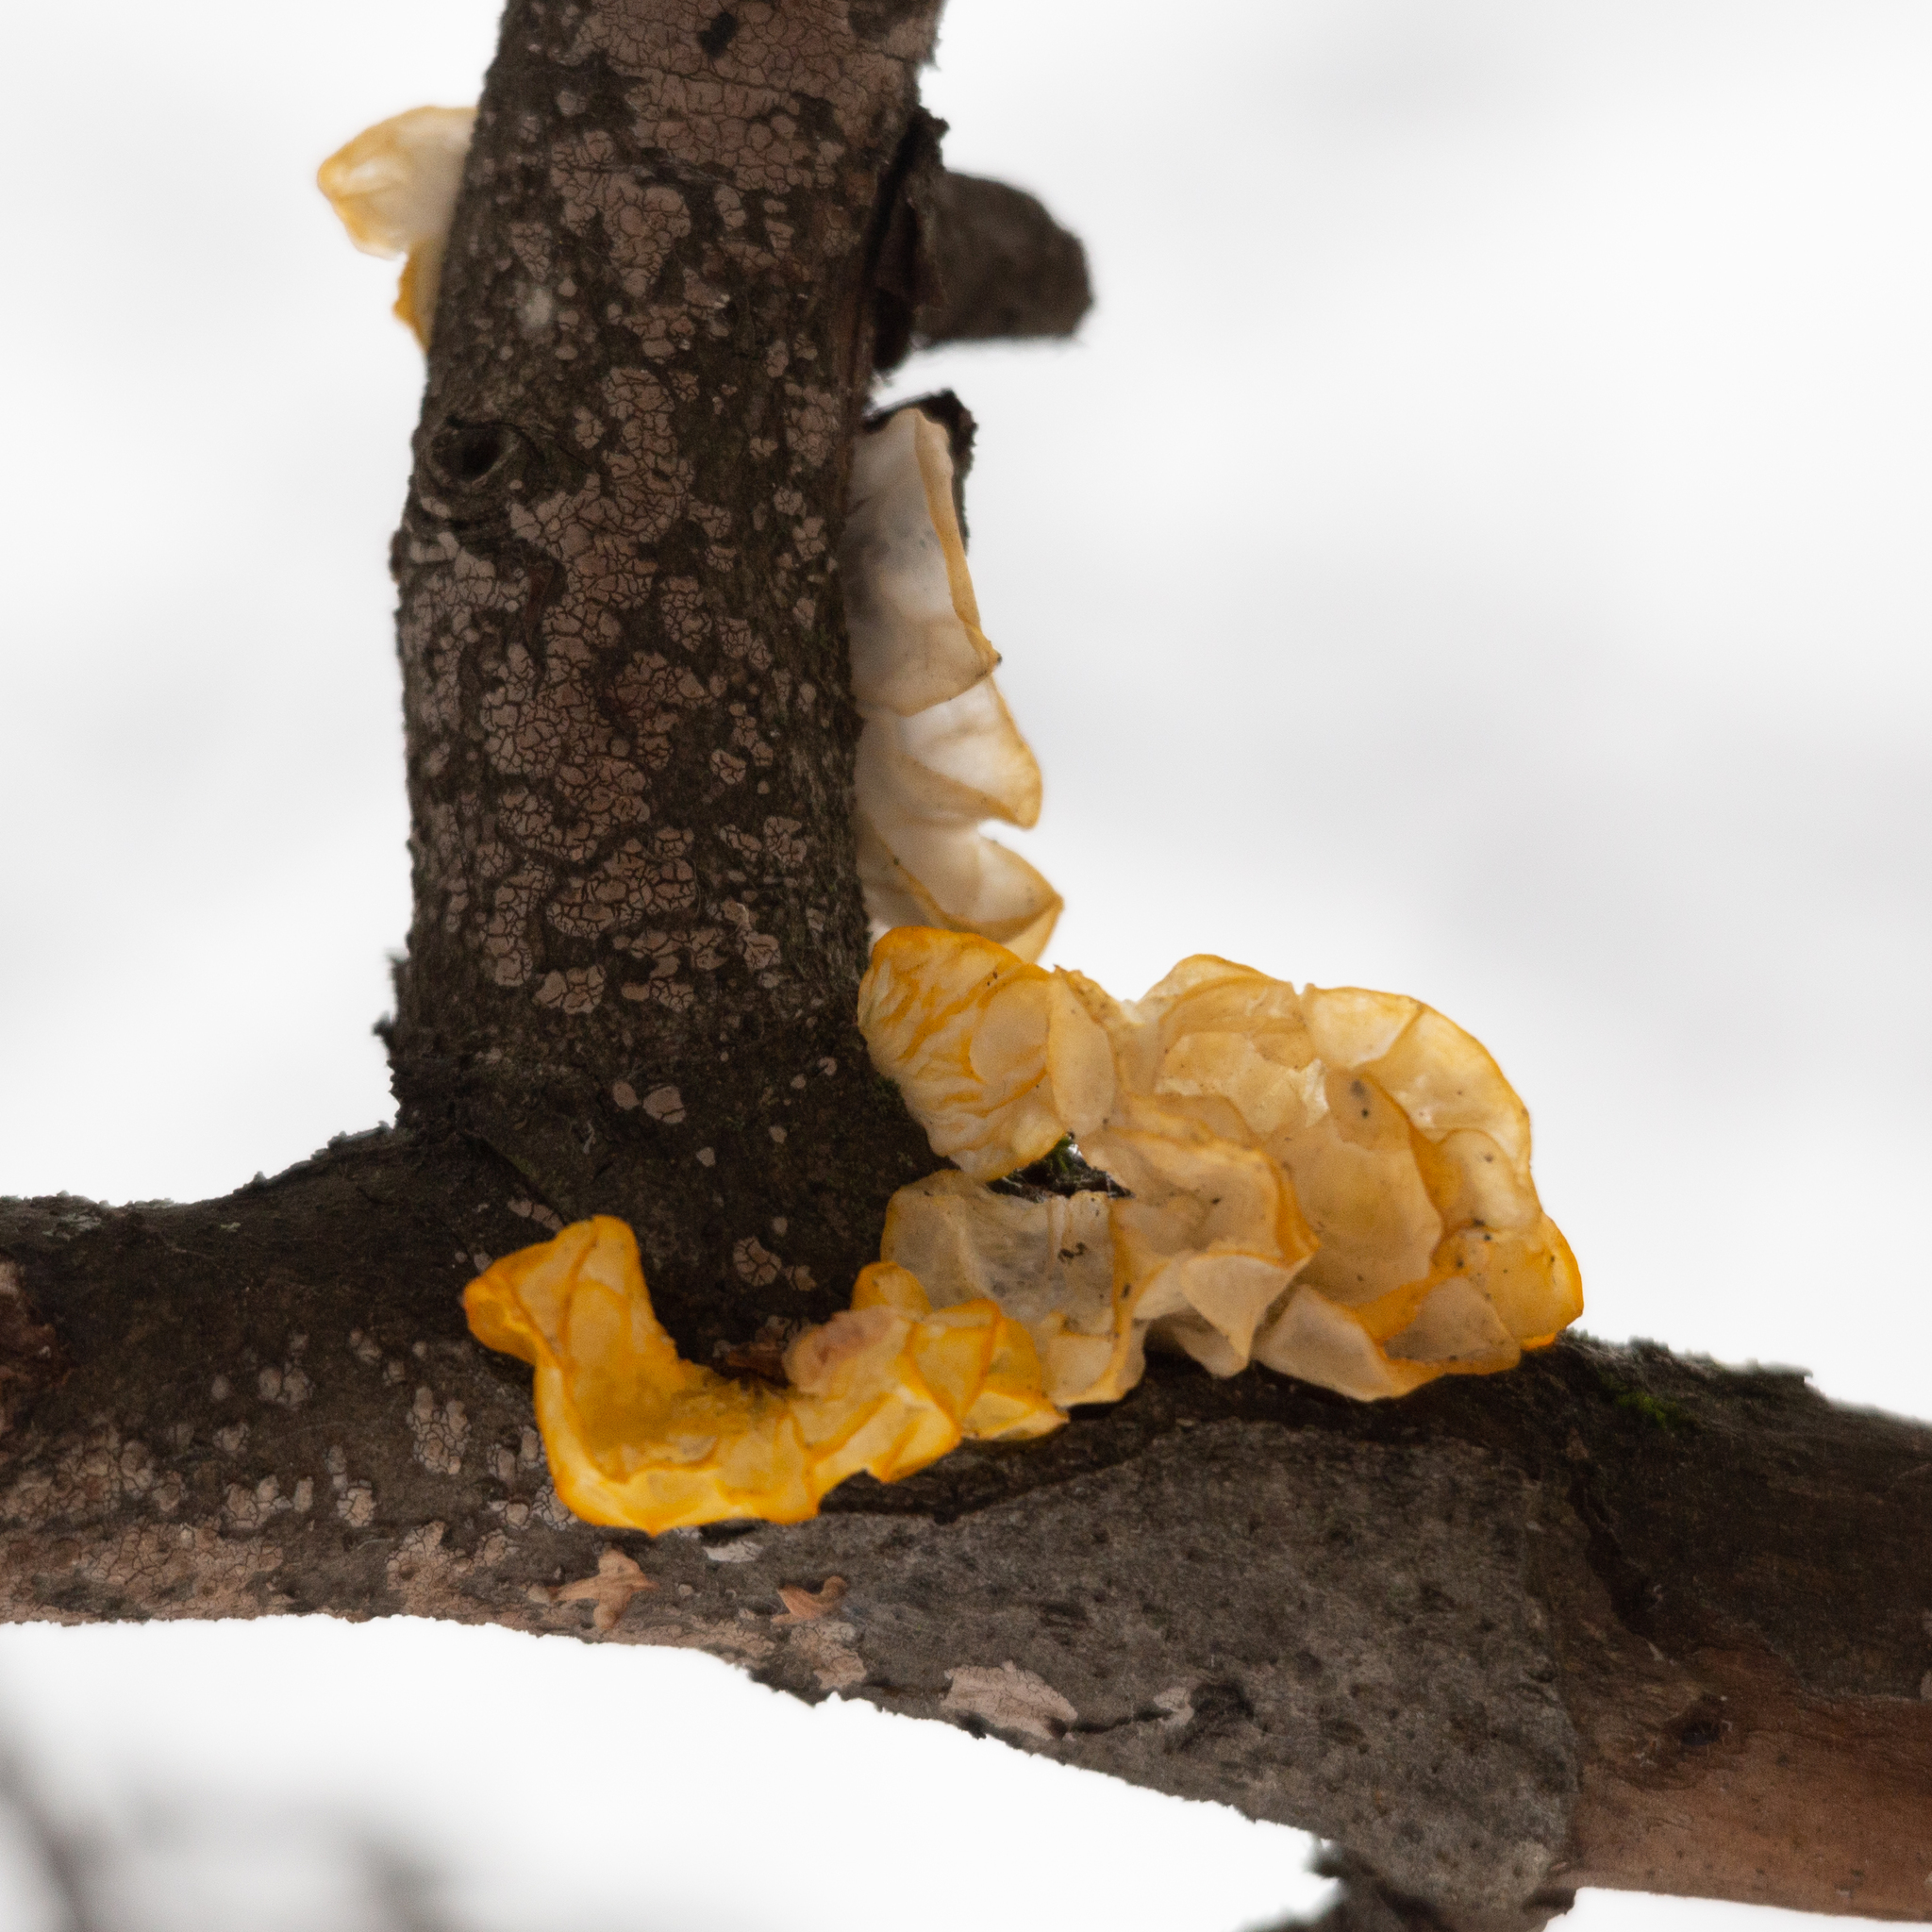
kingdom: Fungi
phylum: Basidiomycota
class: Tremellomycetes
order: Tremellales
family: Tremellaceae
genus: Tremella
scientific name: Tremella mesenterica
